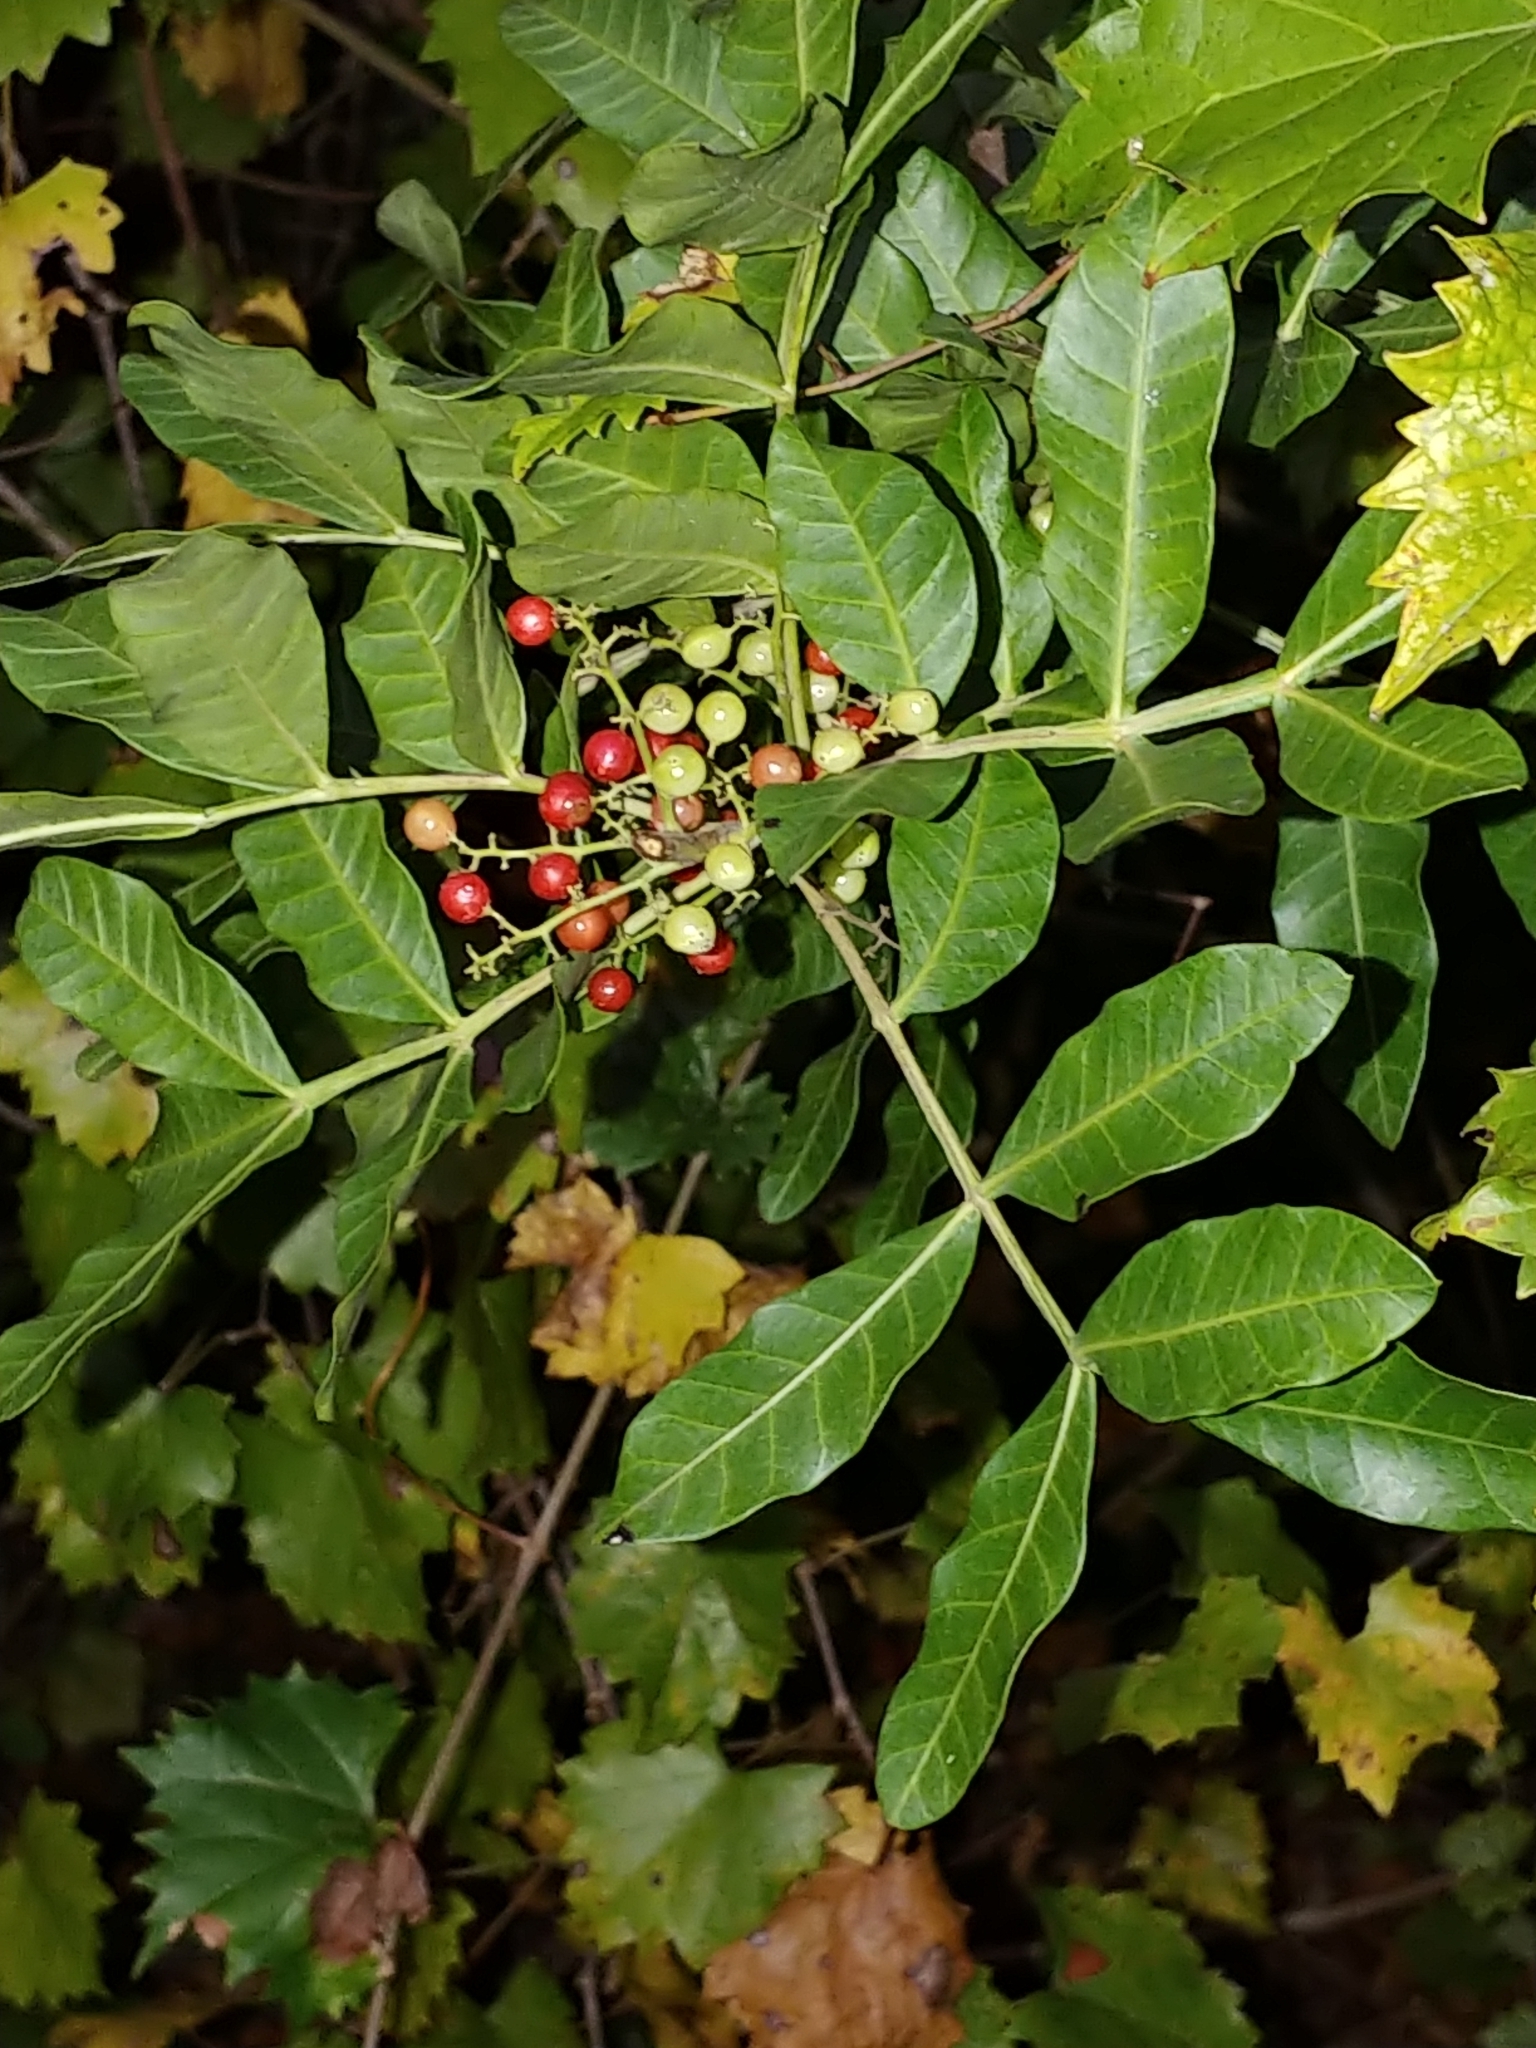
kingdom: Plantae
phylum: Tracheophyta
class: Magnoliopsida
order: Sapindales
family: Anacardiaceae
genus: Schinus
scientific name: Schinus terebinthifolia
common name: Brazilian peppertree
